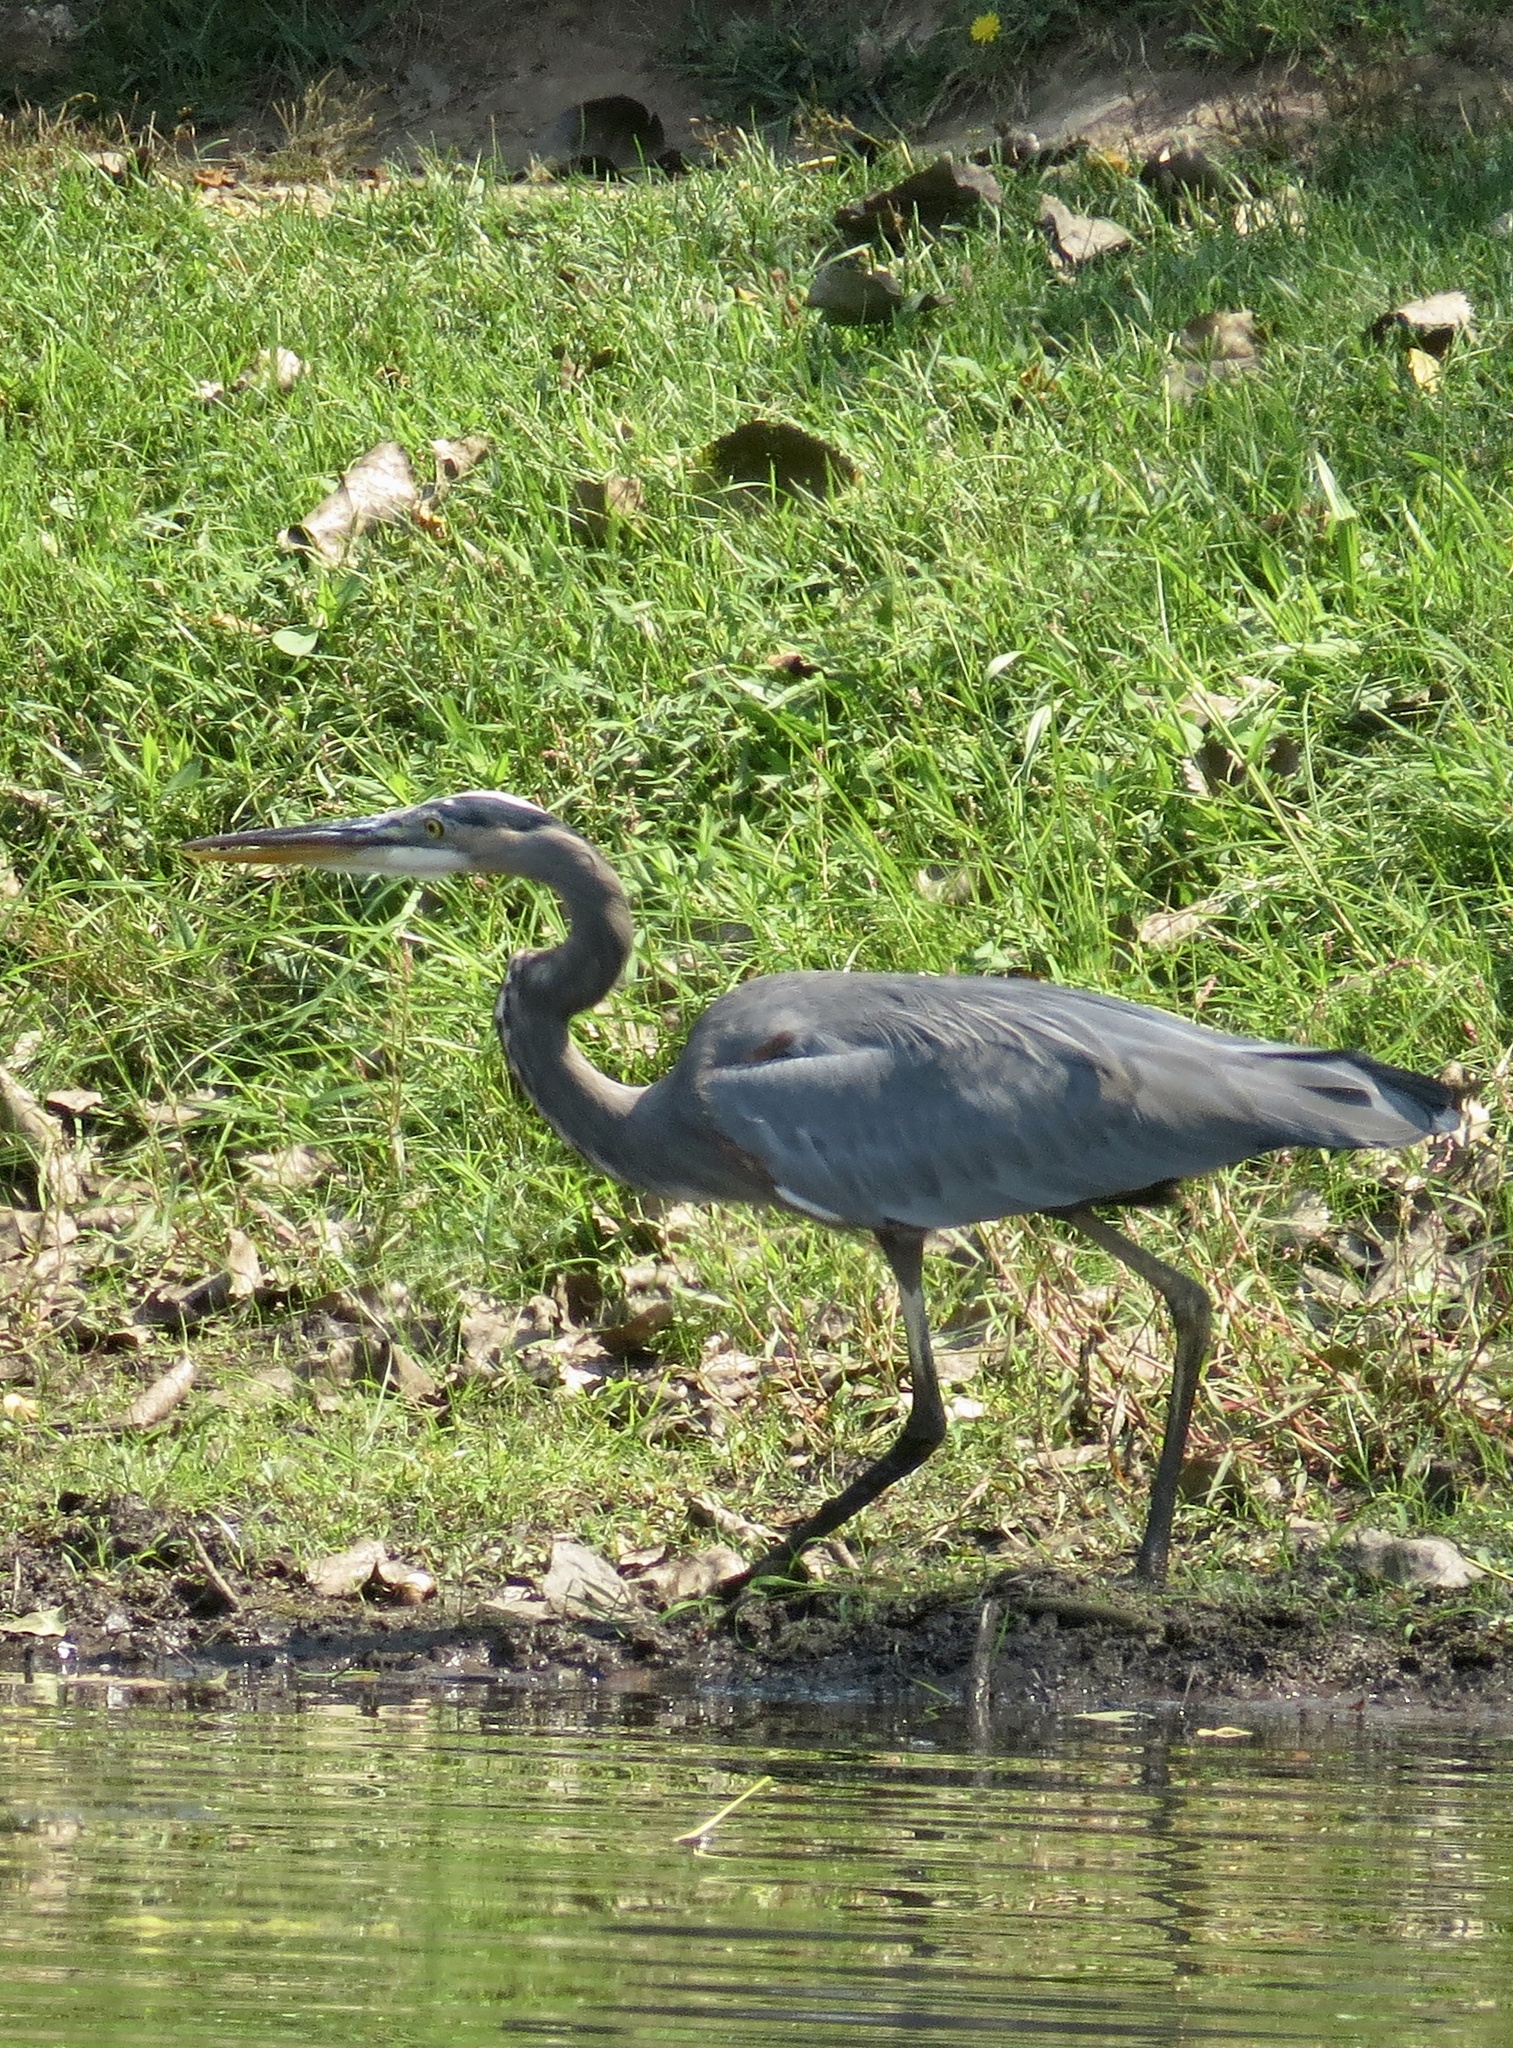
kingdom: Animalia
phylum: Chordata
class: Aves
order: Pelecaniformes
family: Ardeidae
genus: Ardea
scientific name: Ardea herodias
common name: Great blue heron
